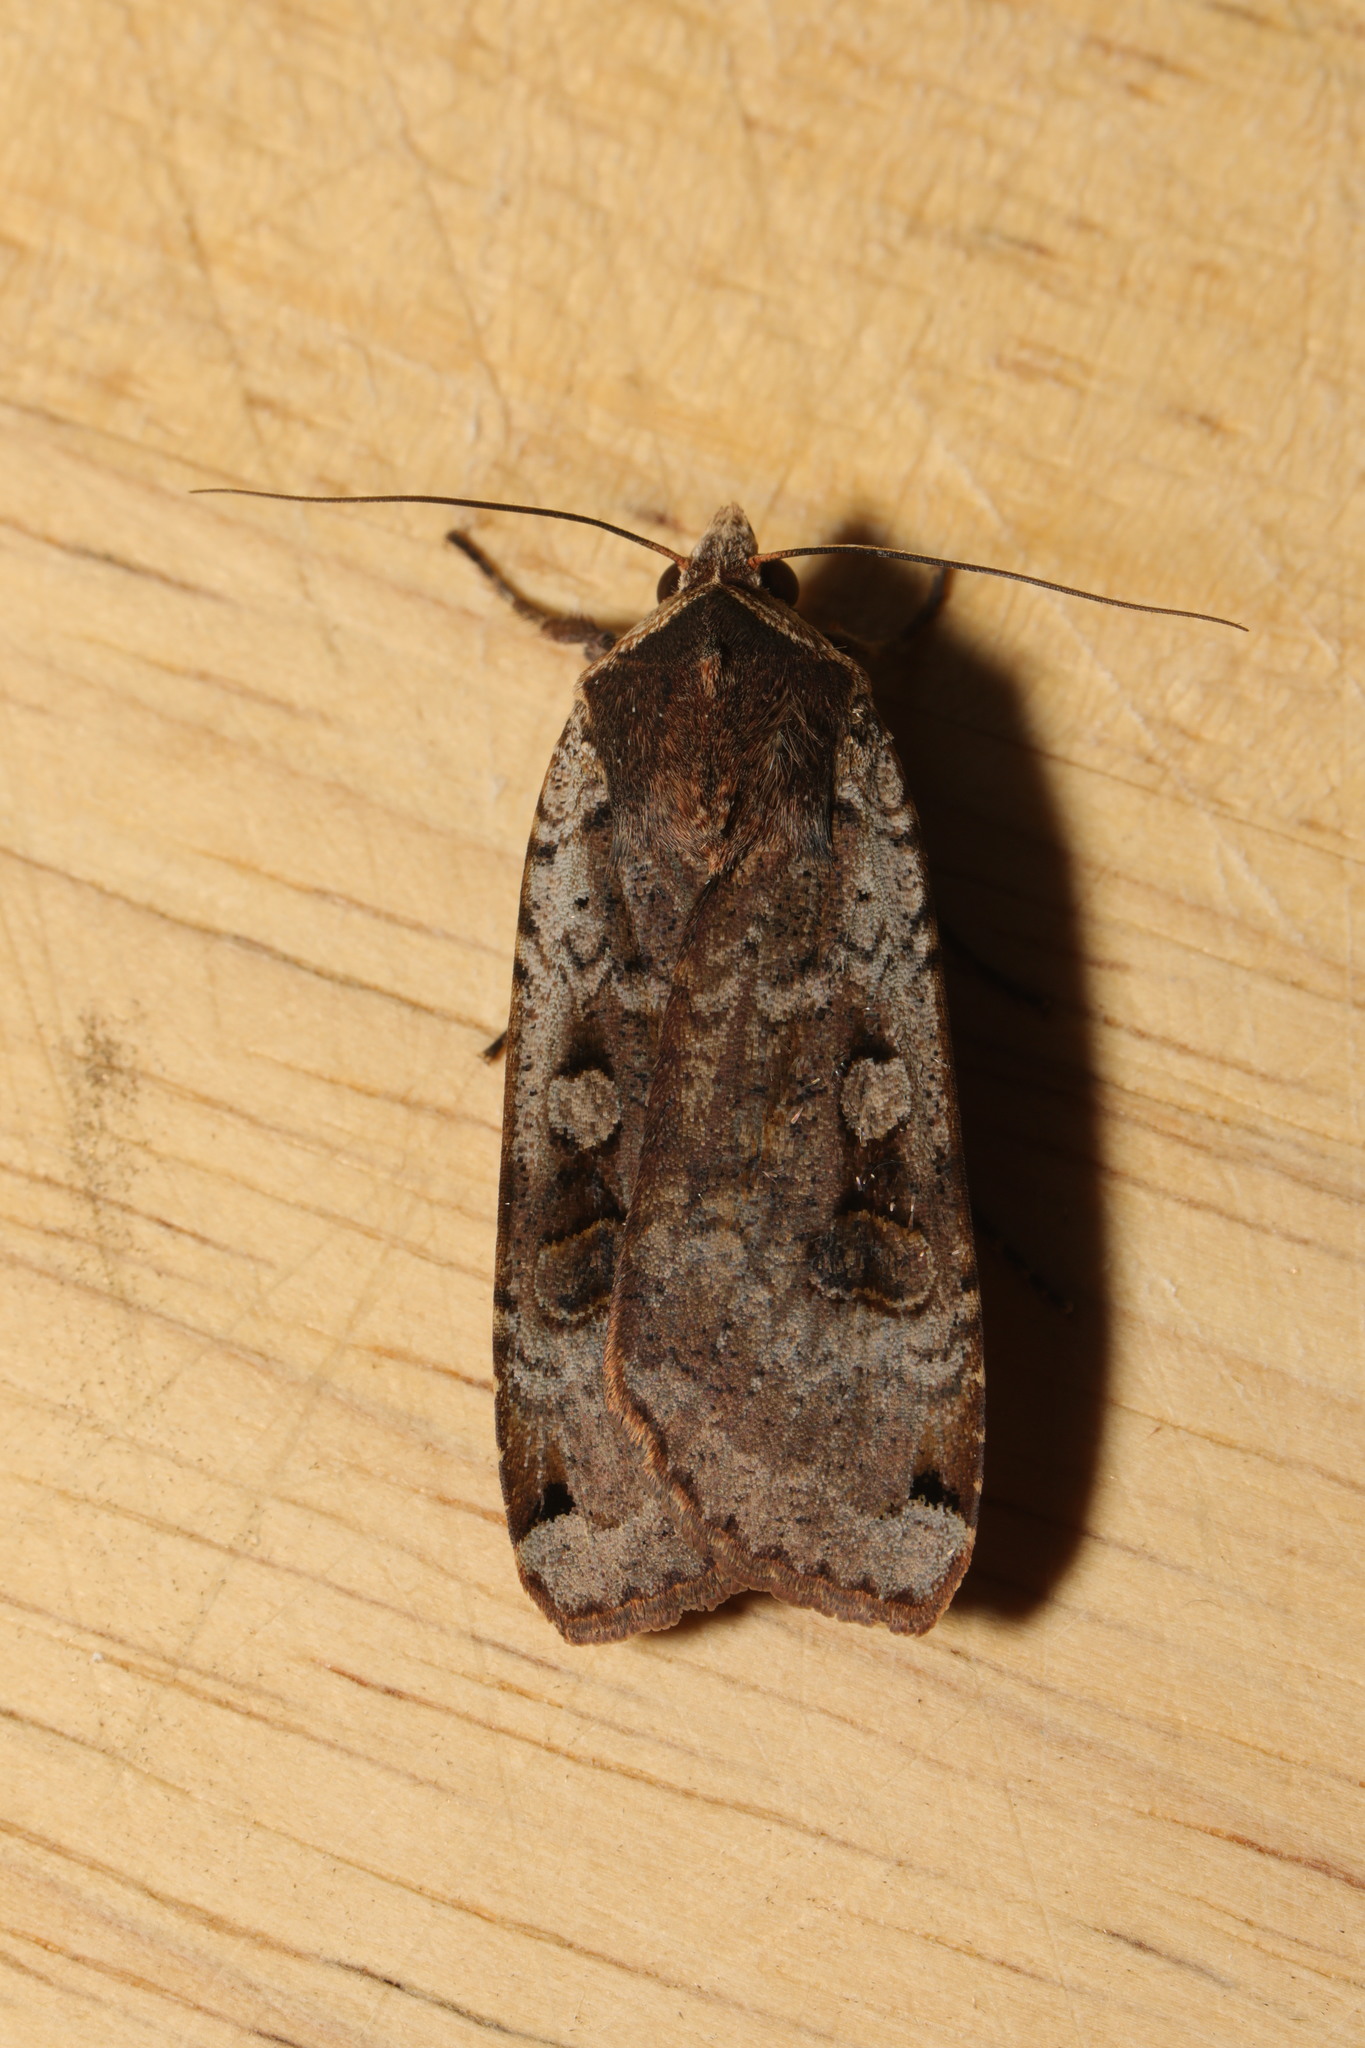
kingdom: Animalia
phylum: Arthropoda
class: Insecta
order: Lepidoptera
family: Noctuidae
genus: Noctua
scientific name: Noctua pronuba
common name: Large yellow underwing
